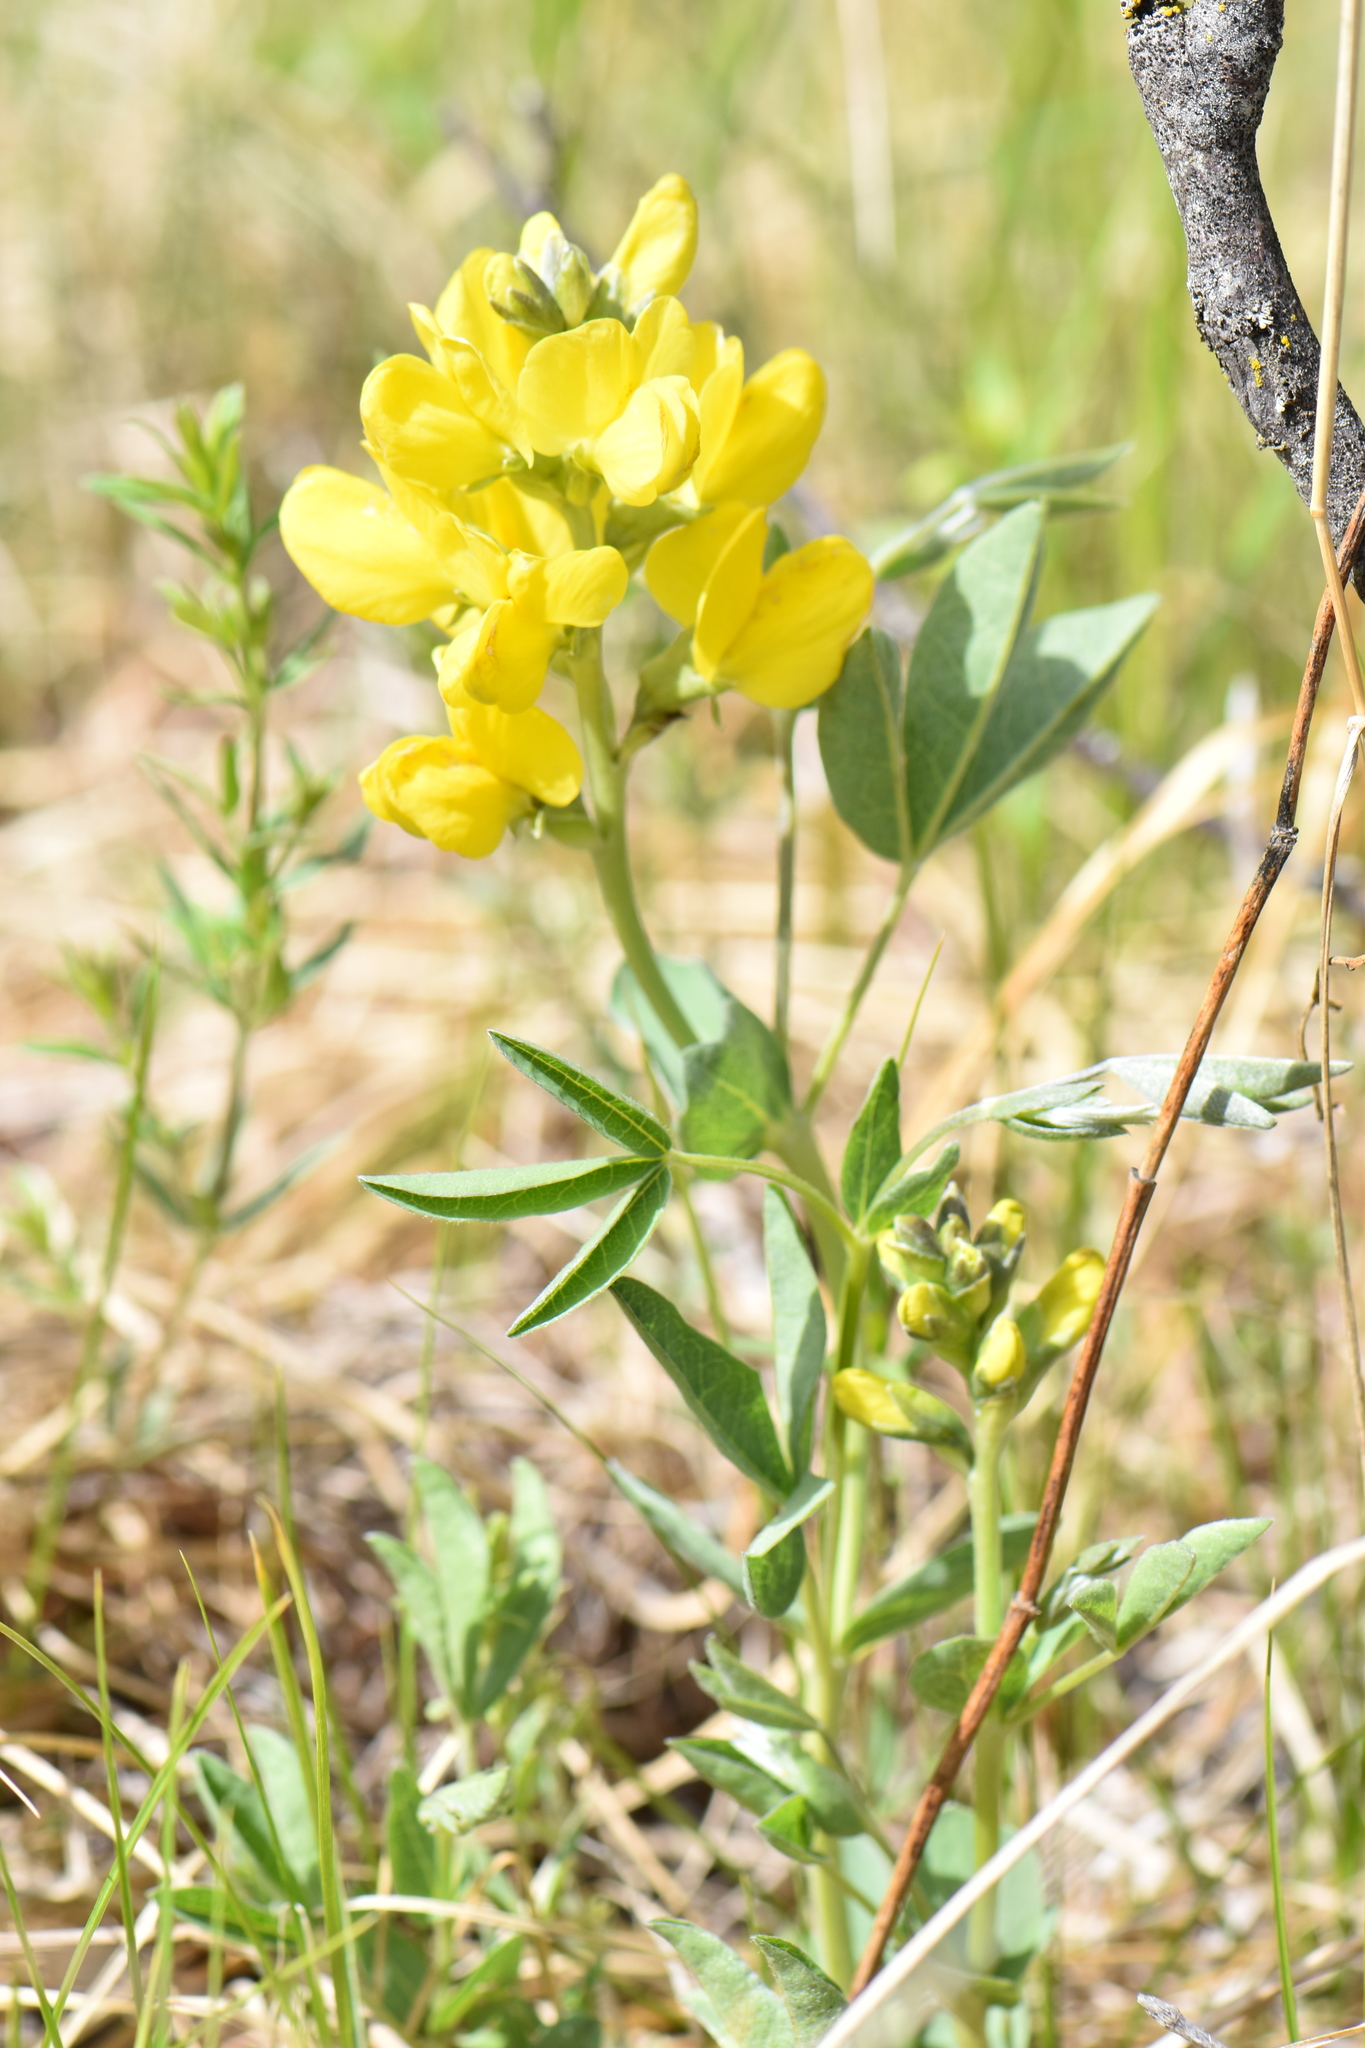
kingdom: Plantae
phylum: Tracheophyta
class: Magnoliopsida
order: Fabales
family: Fabaceae
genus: Thermopsis
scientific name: Thermopsis rhombifolia
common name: Circle-pod-pea
